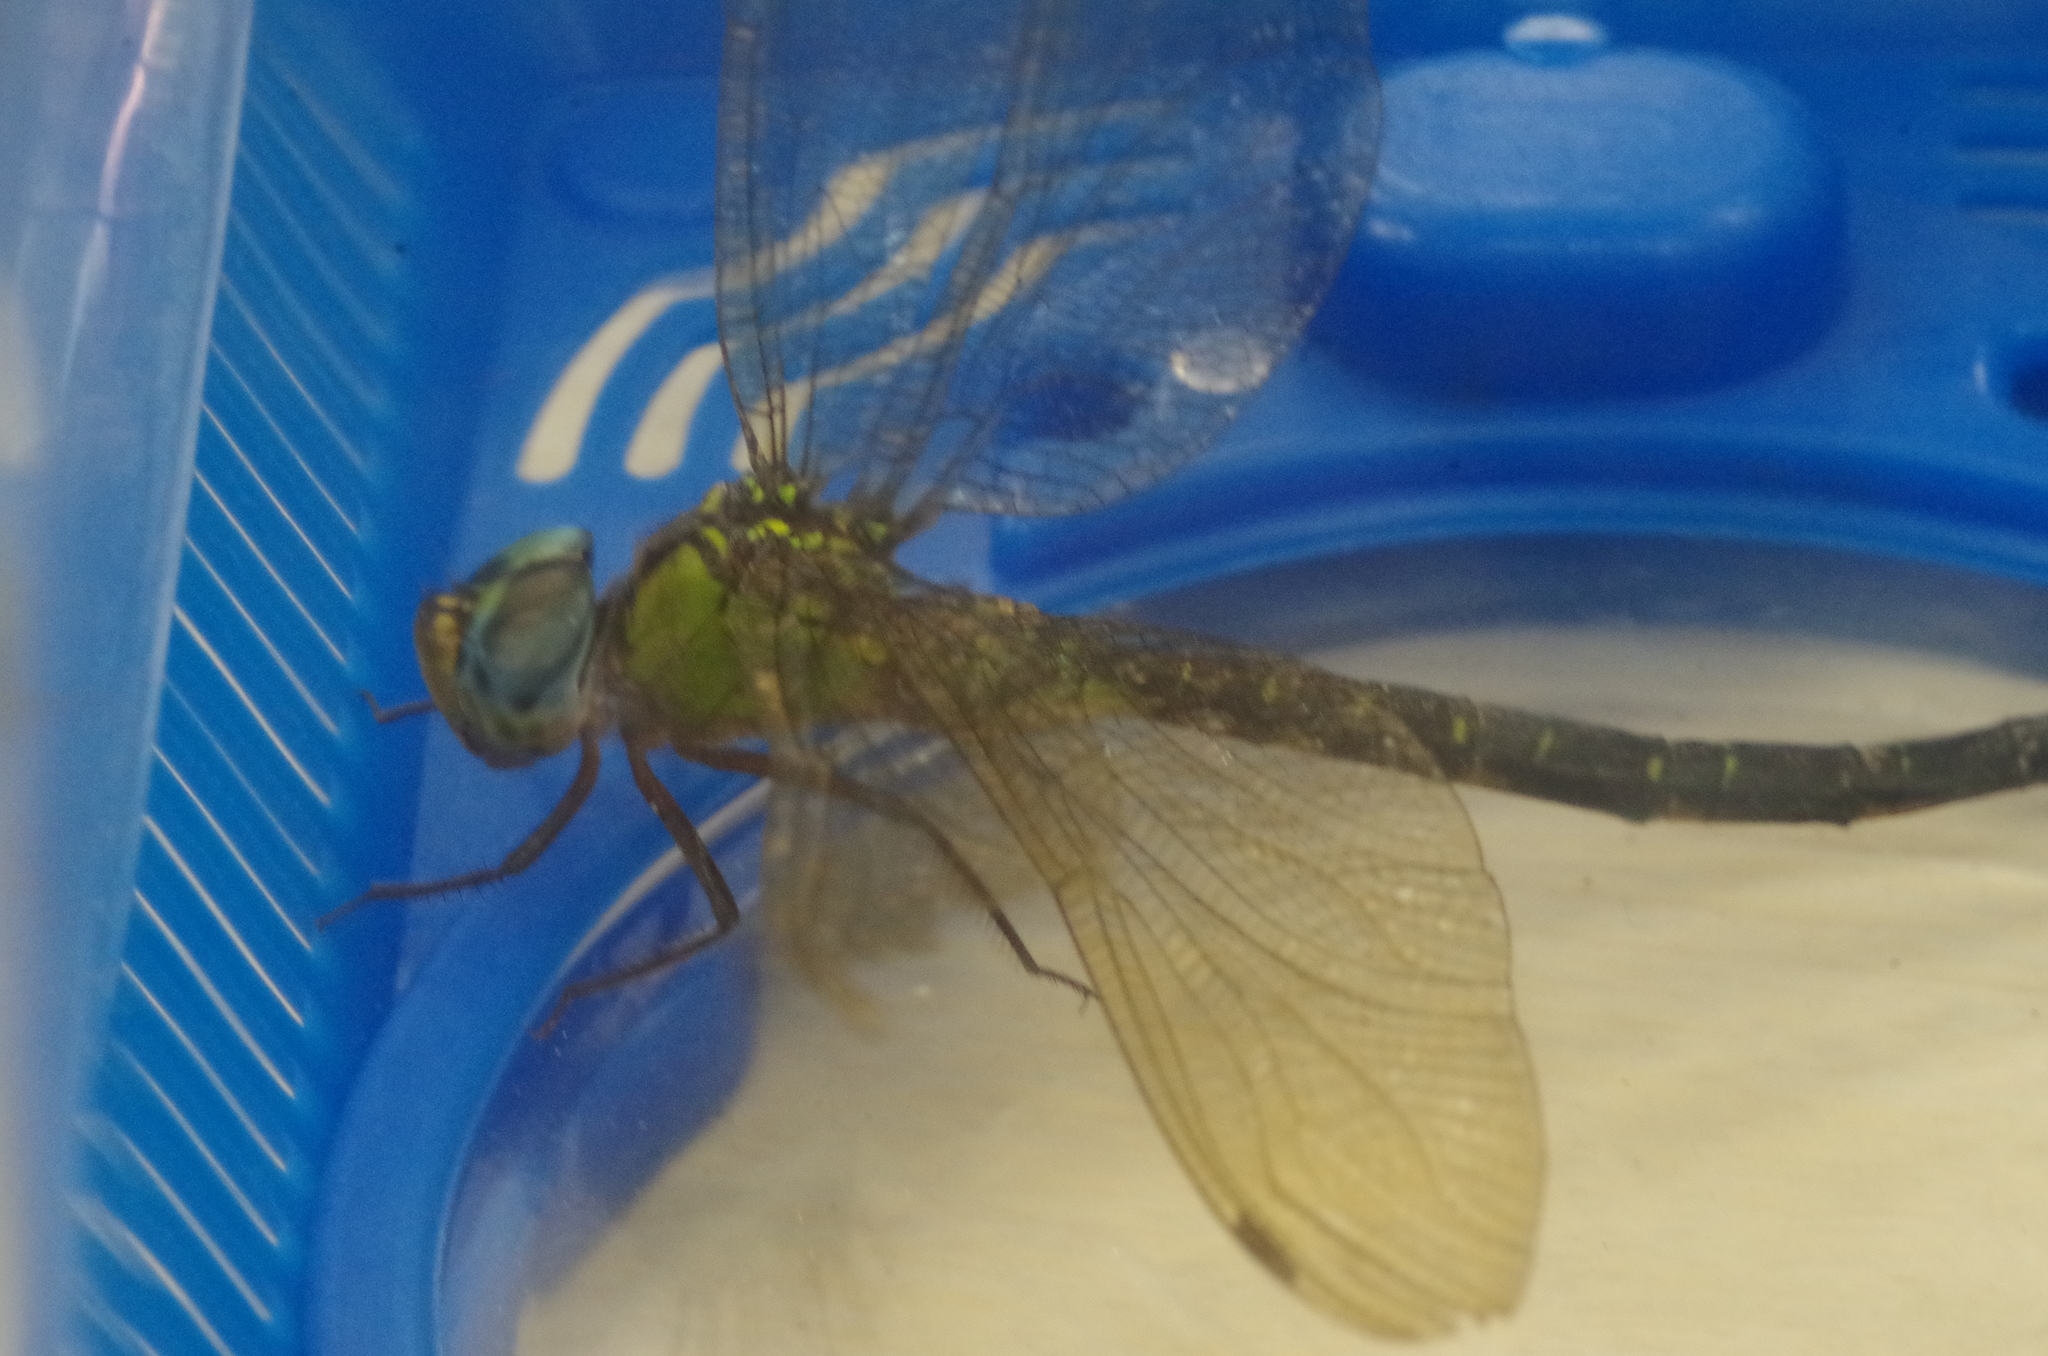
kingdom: Animalia
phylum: Arthropoda
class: Insecta
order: Odonata
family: Aeshnidae
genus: Gynacantha
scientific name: Gynacantha japonica
